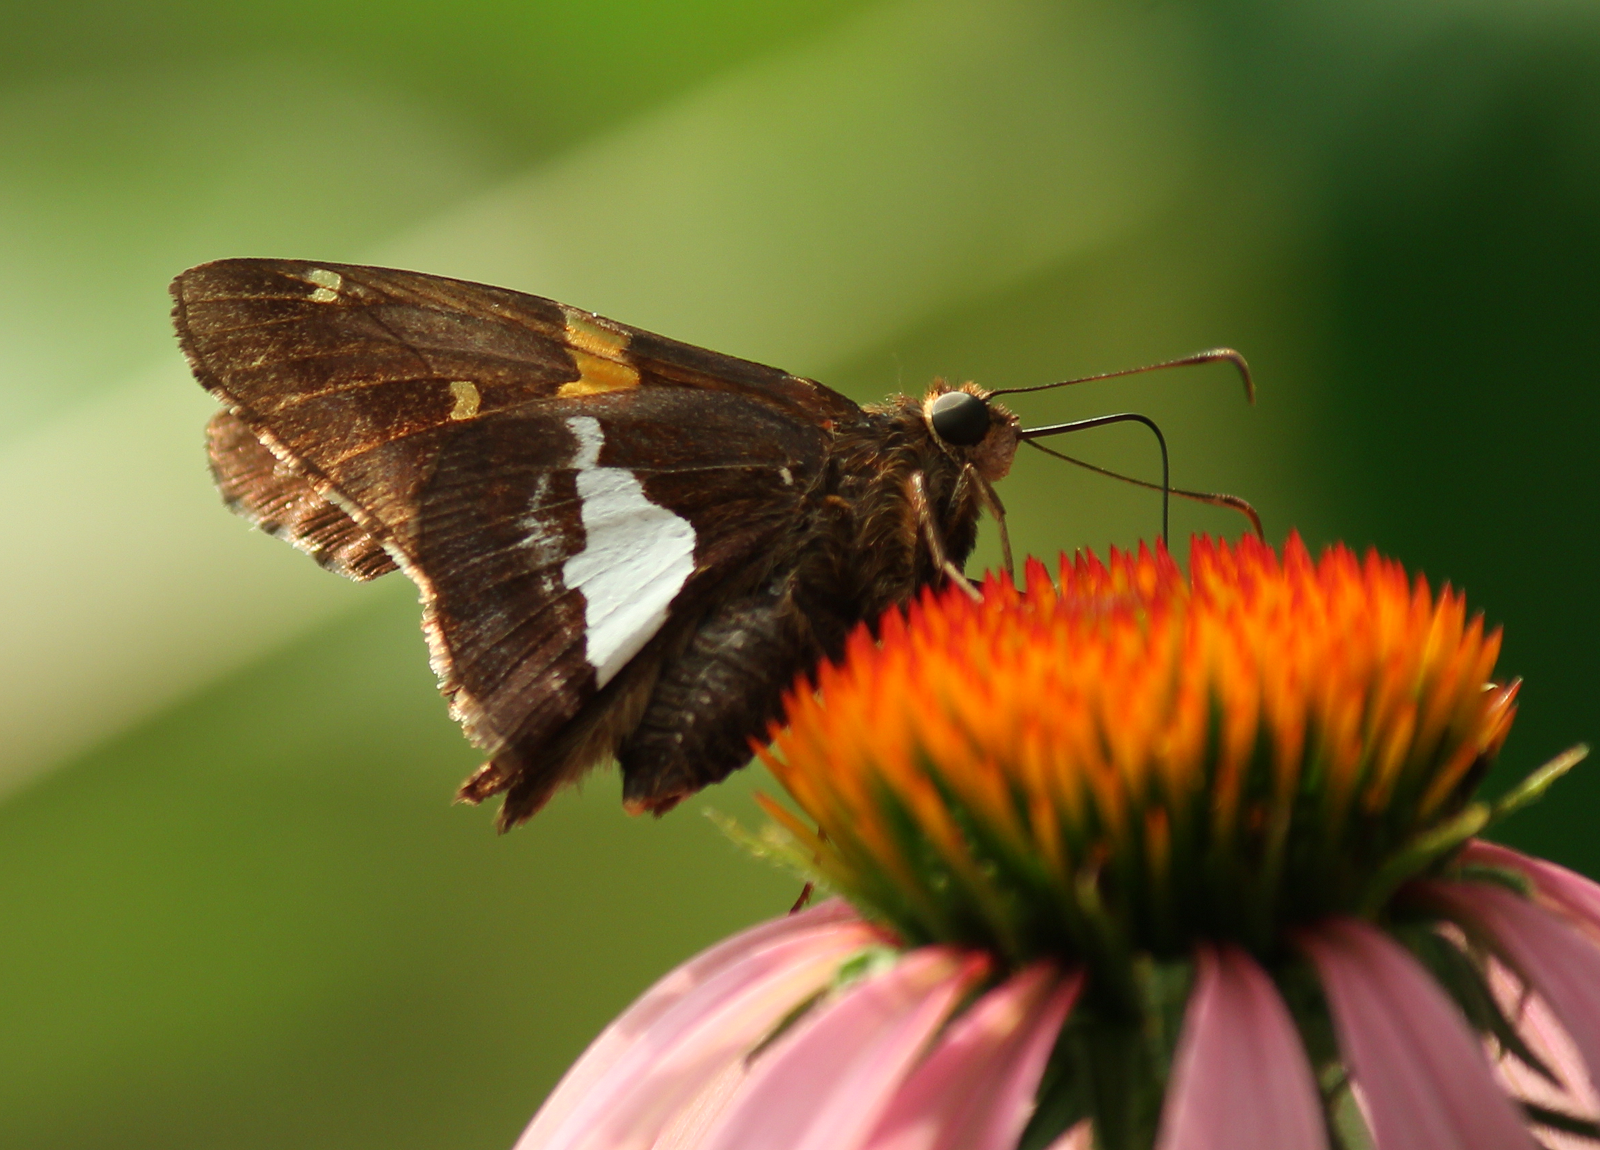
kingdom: Animalia
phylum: Arthropoda
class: Insecta
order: Lepidoptera
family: Hesperiidae
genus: Epargyreus
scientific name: Epargyreus clarus
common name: Silver-spotted skipper
